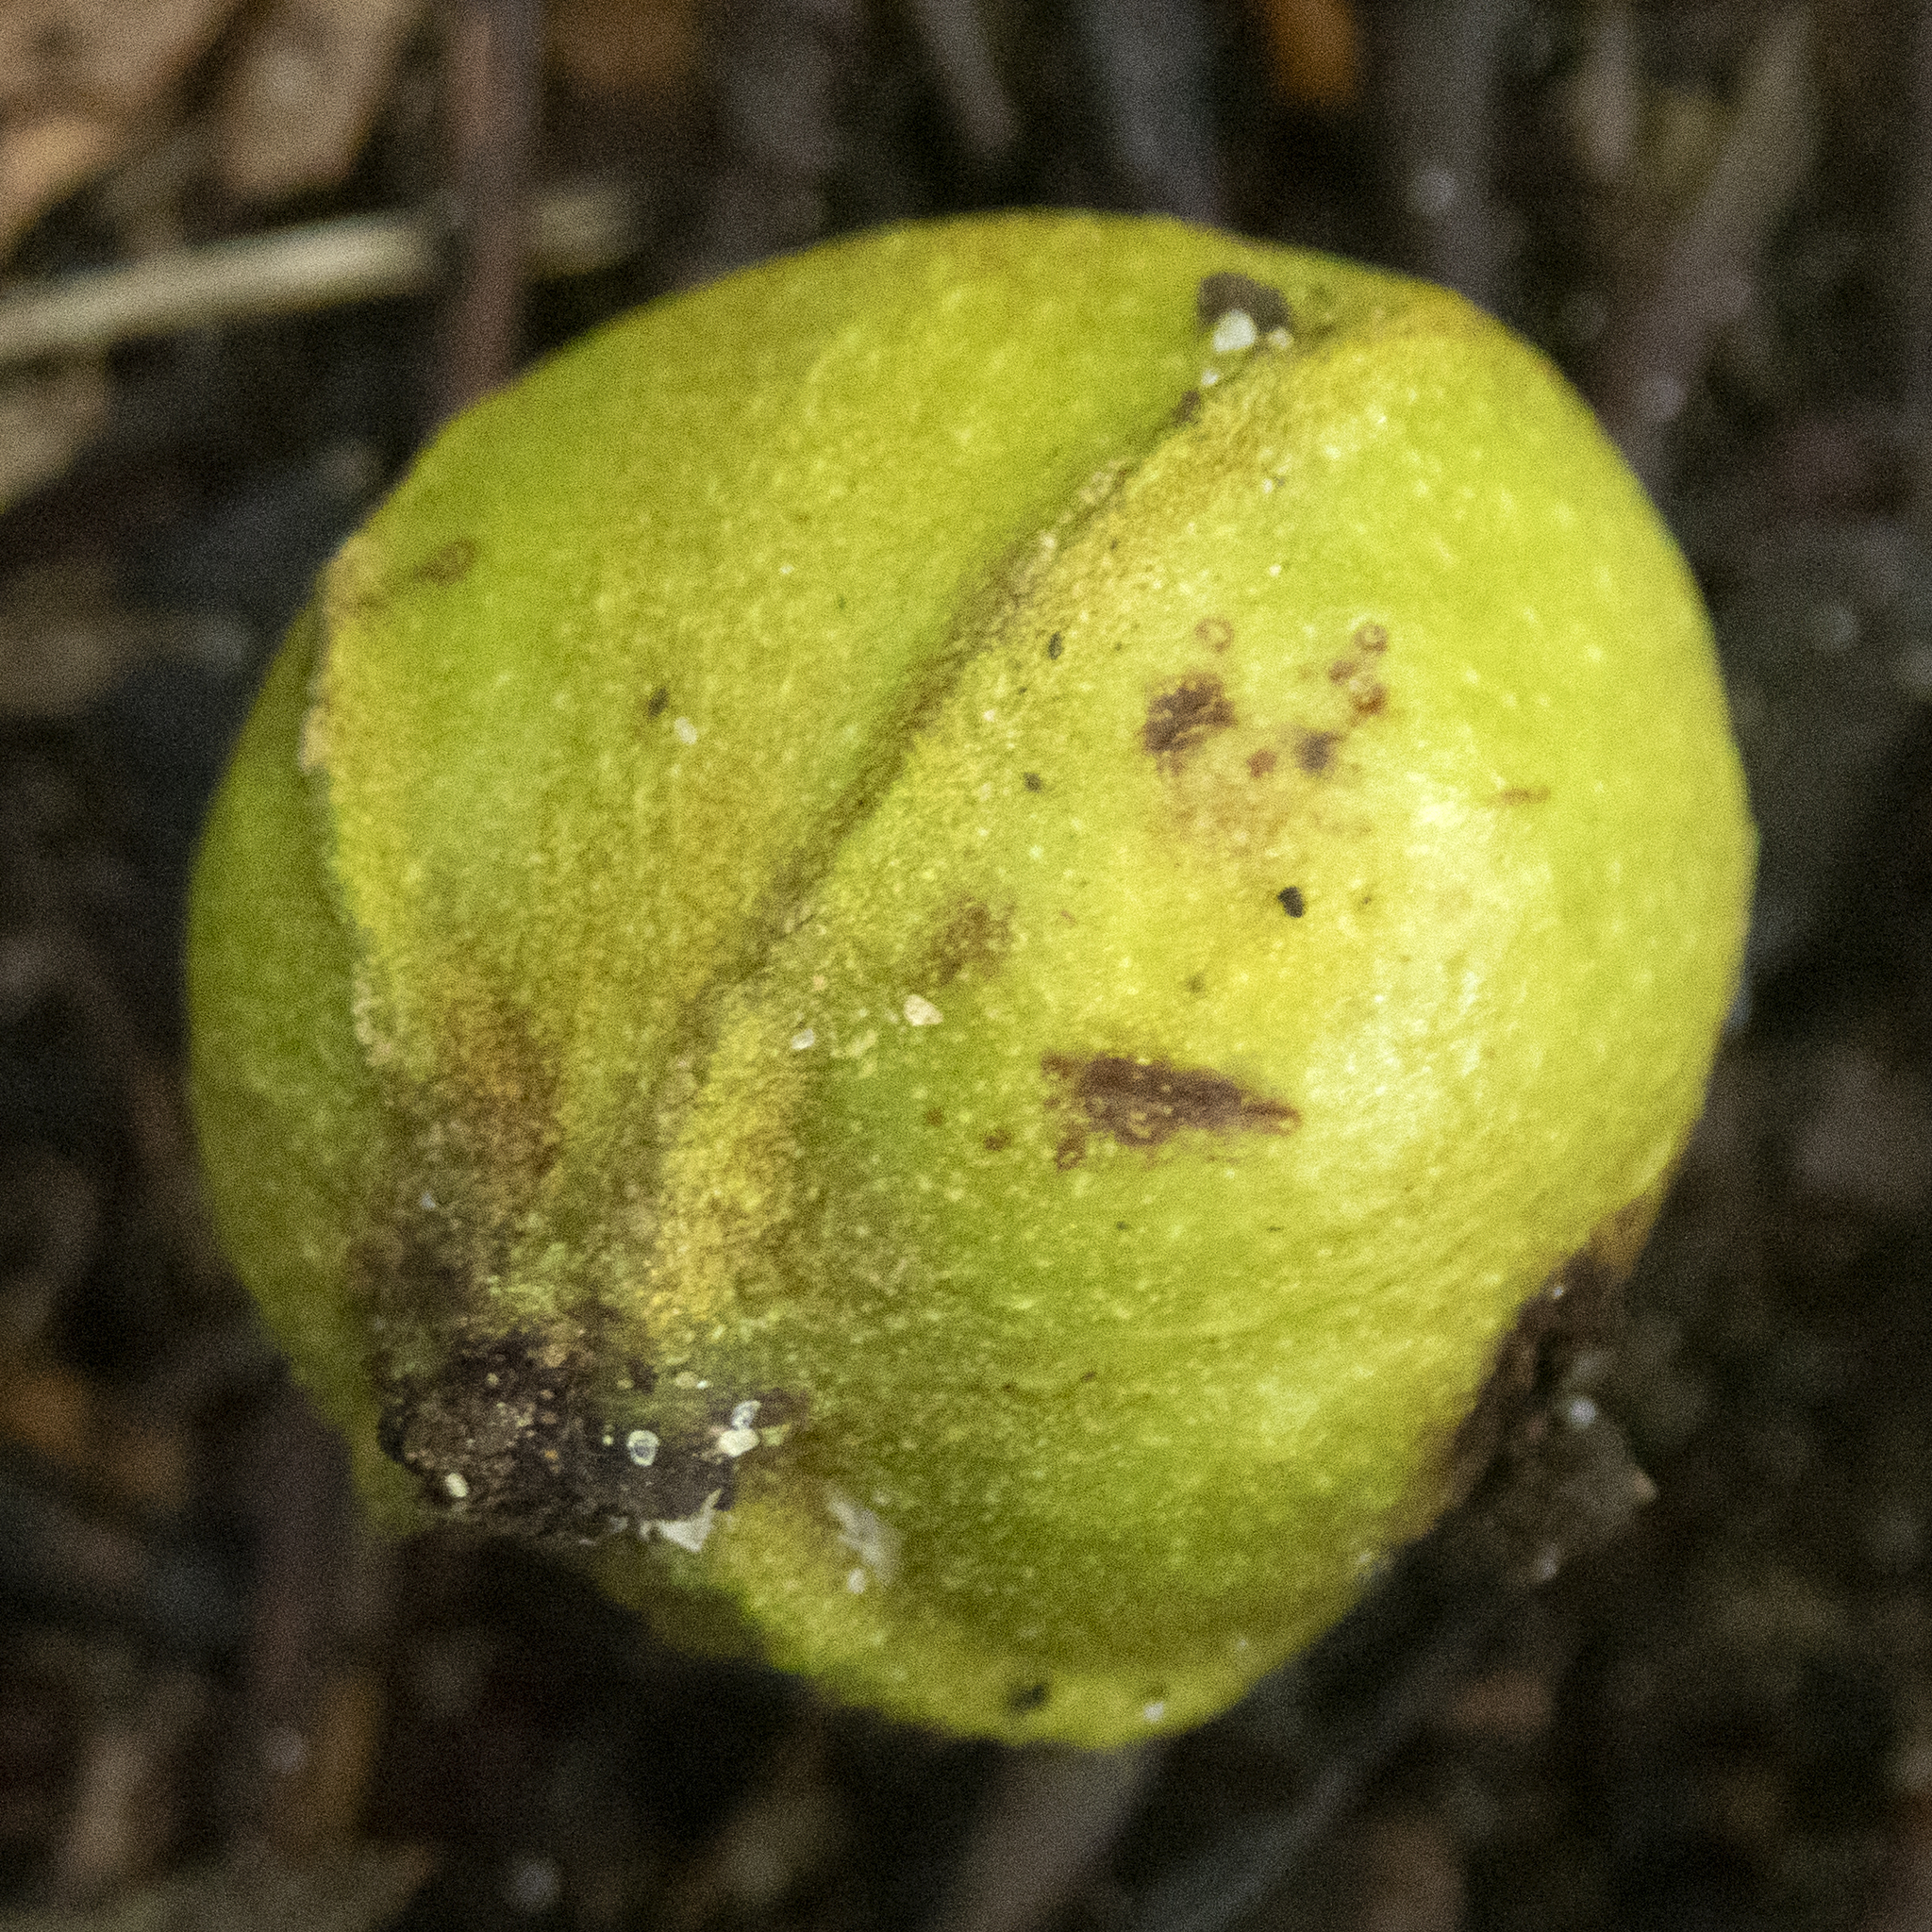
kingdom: Plantae
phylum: Tracheophyta
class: Magnoliopsida
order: Fagales
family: Juglandaceae
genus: Carya
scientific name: Carya cordiformis
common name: Bitternut hickory
